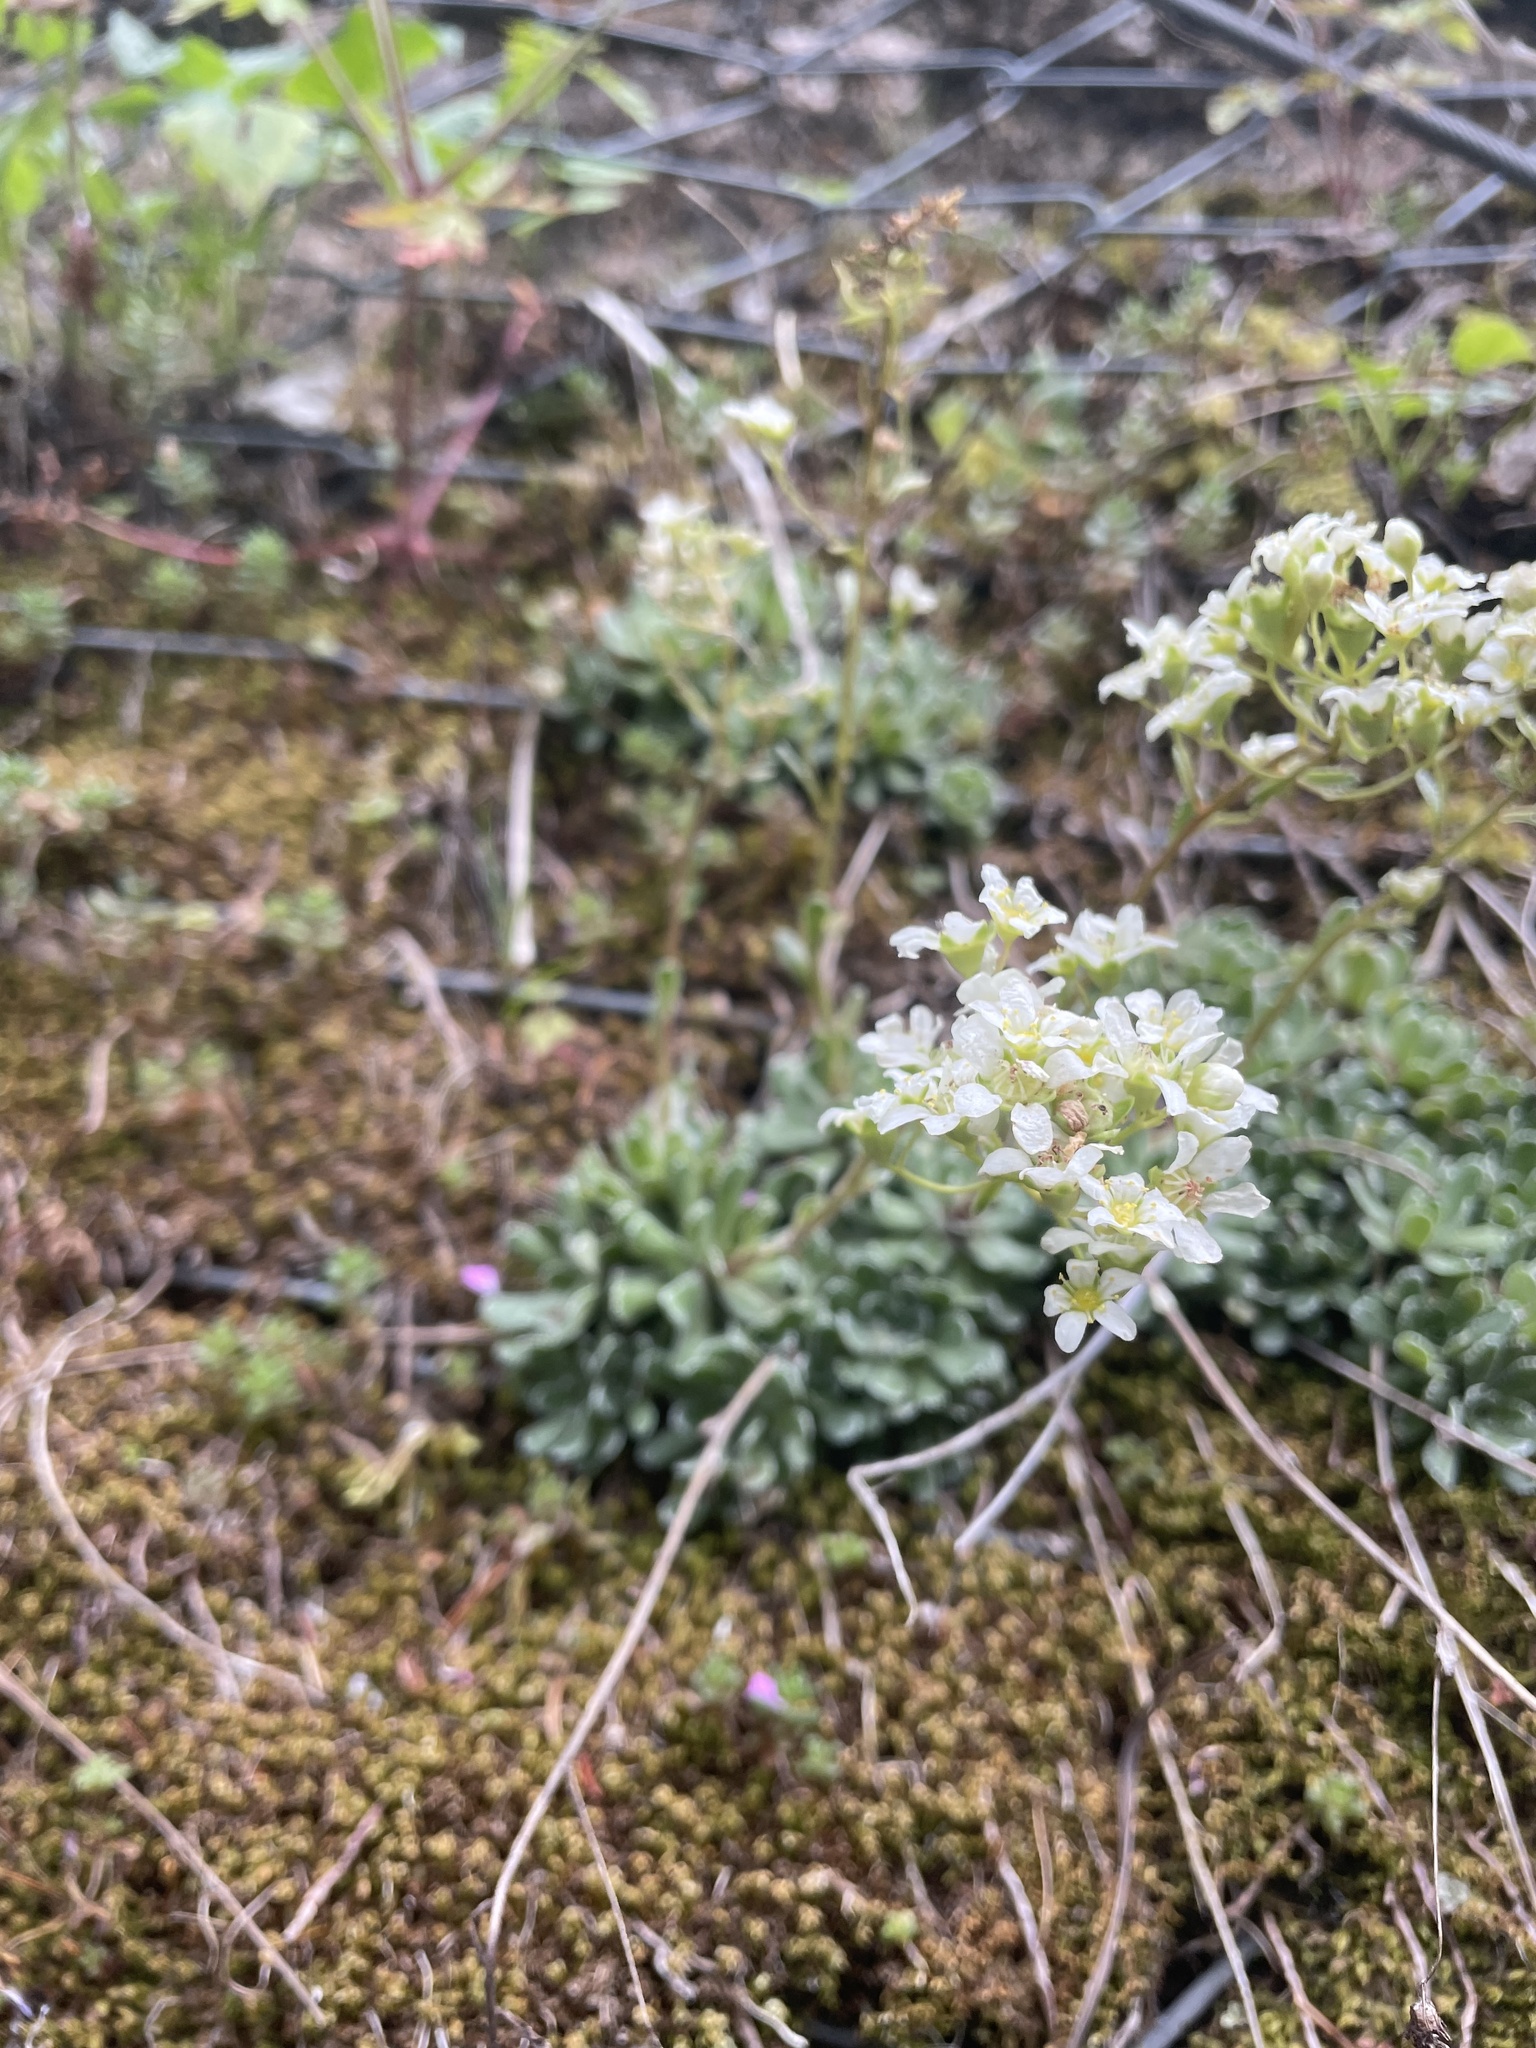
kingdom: Plantae
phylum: Tracheophyta
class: Magnoliopsida
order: Saxifragales
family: Saxifragaceae
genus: Saxifraga
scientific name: Saxifraga paniculata
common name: Livelong saxifrage
